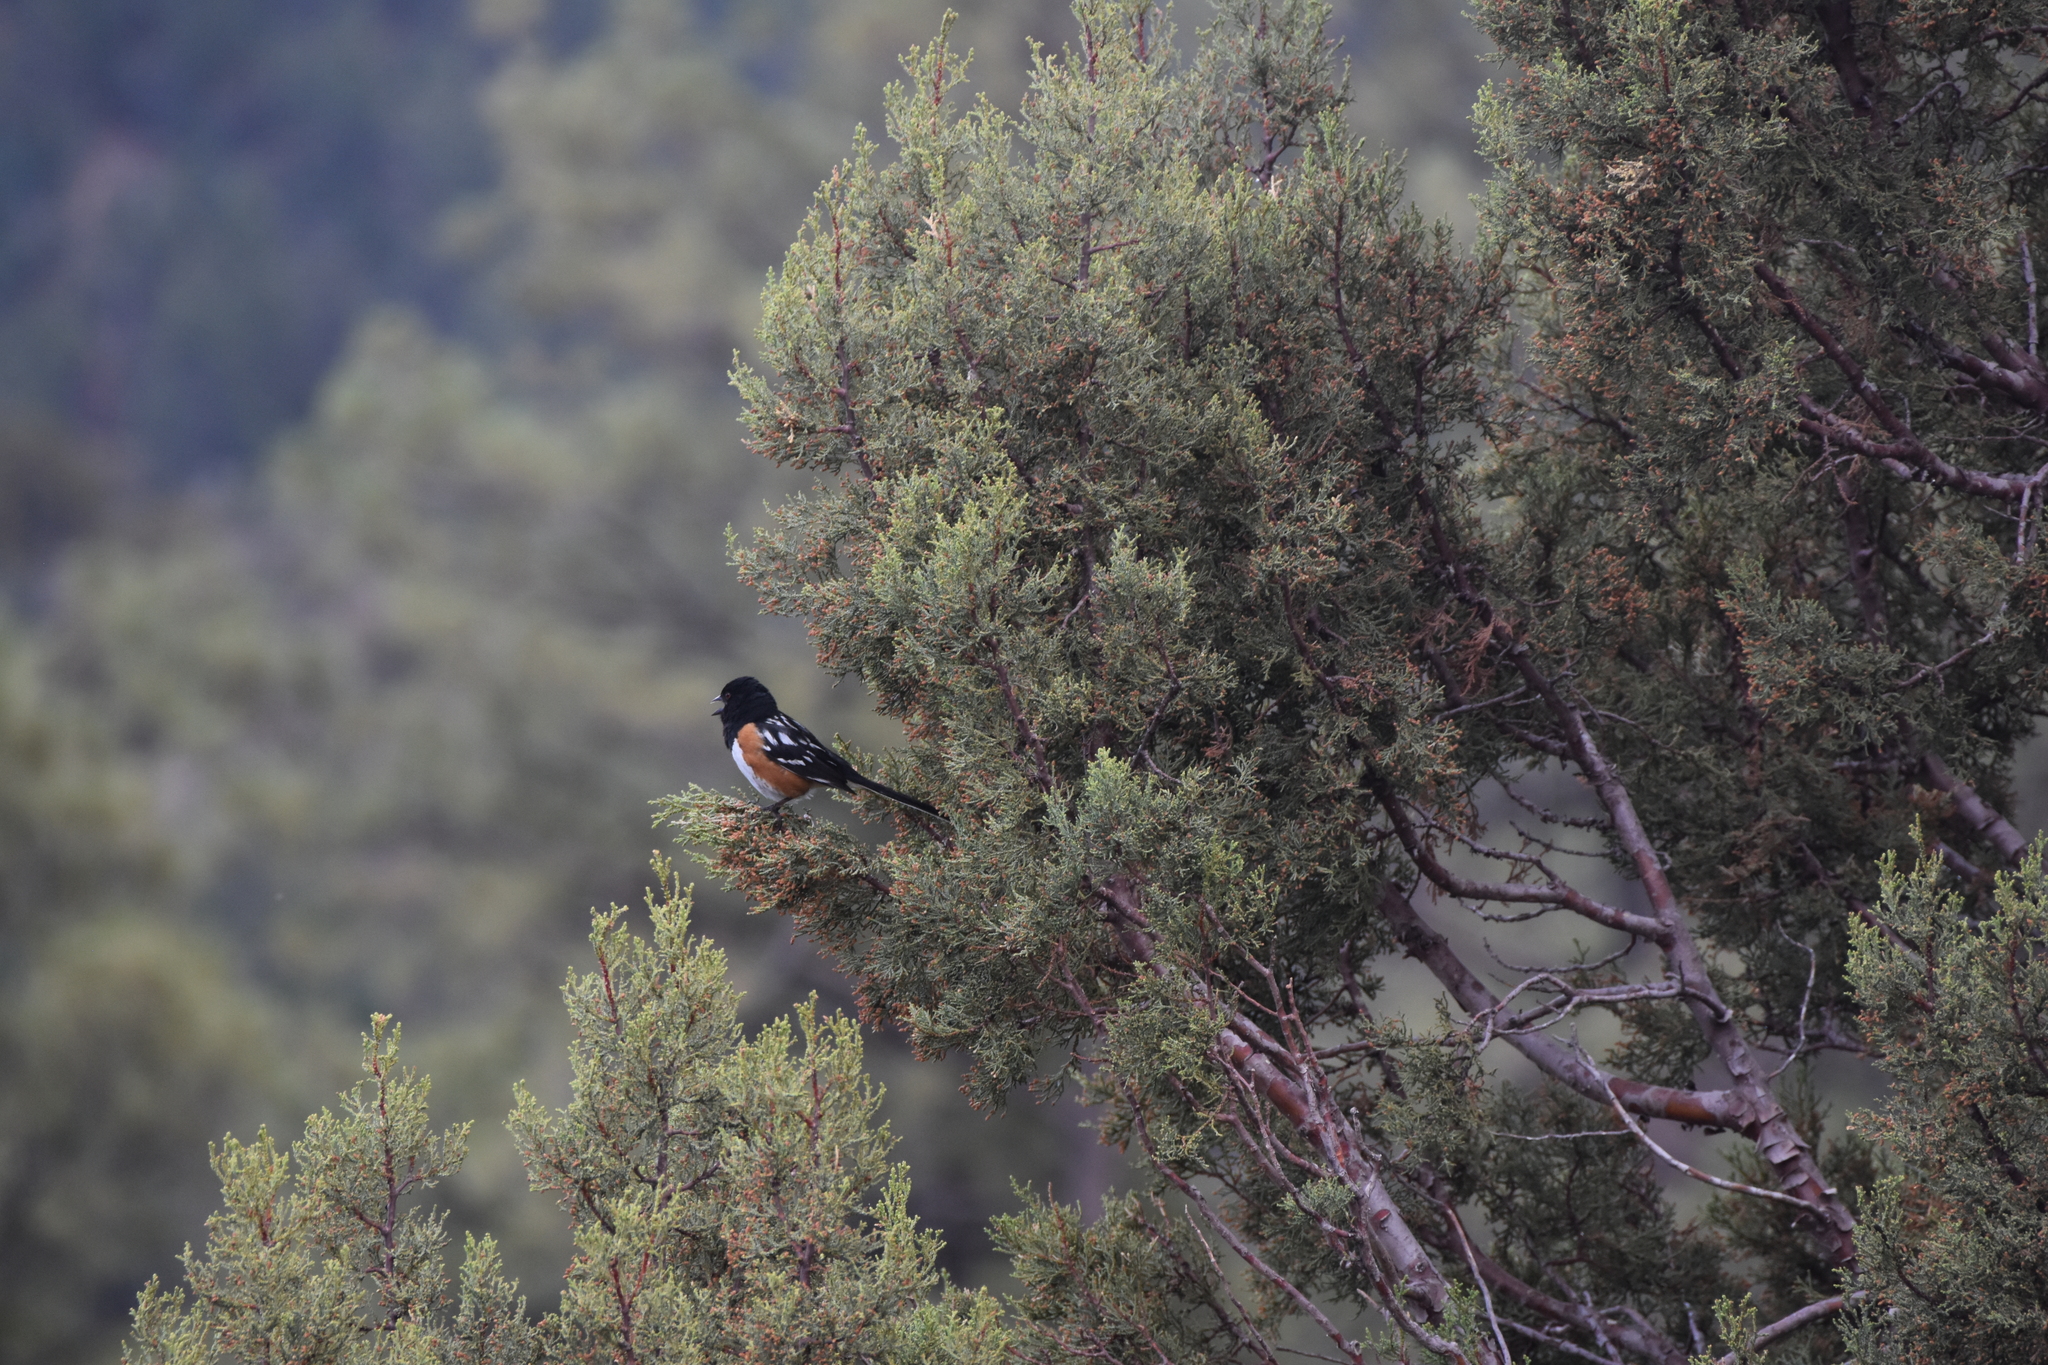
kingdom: Animalia
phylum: Chordata
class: Aves
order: Passeriformes
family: Passerellidae
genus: Pipilo
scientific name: Pipilo maculatus
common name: Spotted towhee
